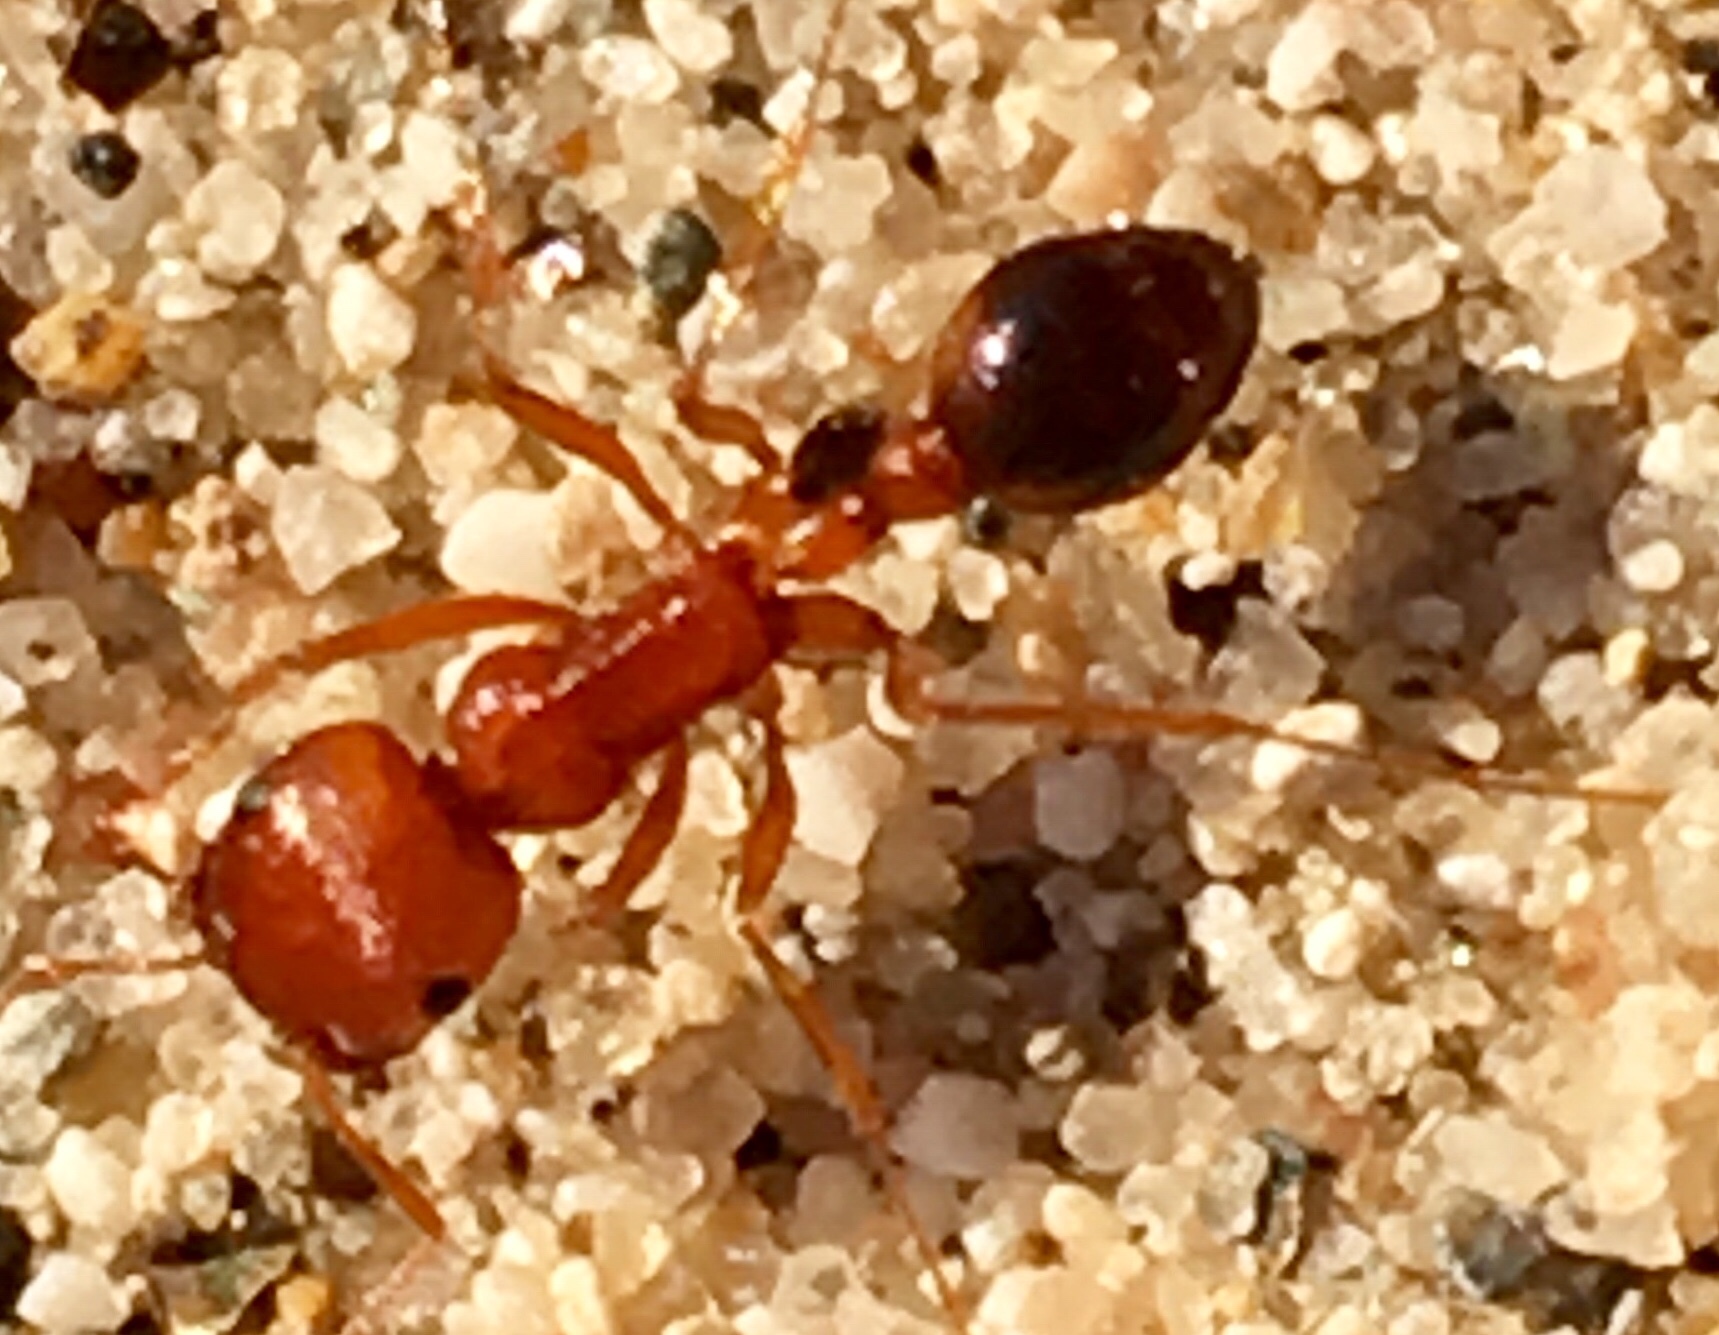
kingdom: Animalia
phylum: Arthropoda
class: Insecta
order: Hymenoptera
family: Formicidae
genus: Pogonomyrmex
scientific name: Pogonomyrmex californicus
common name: California harvester ant
